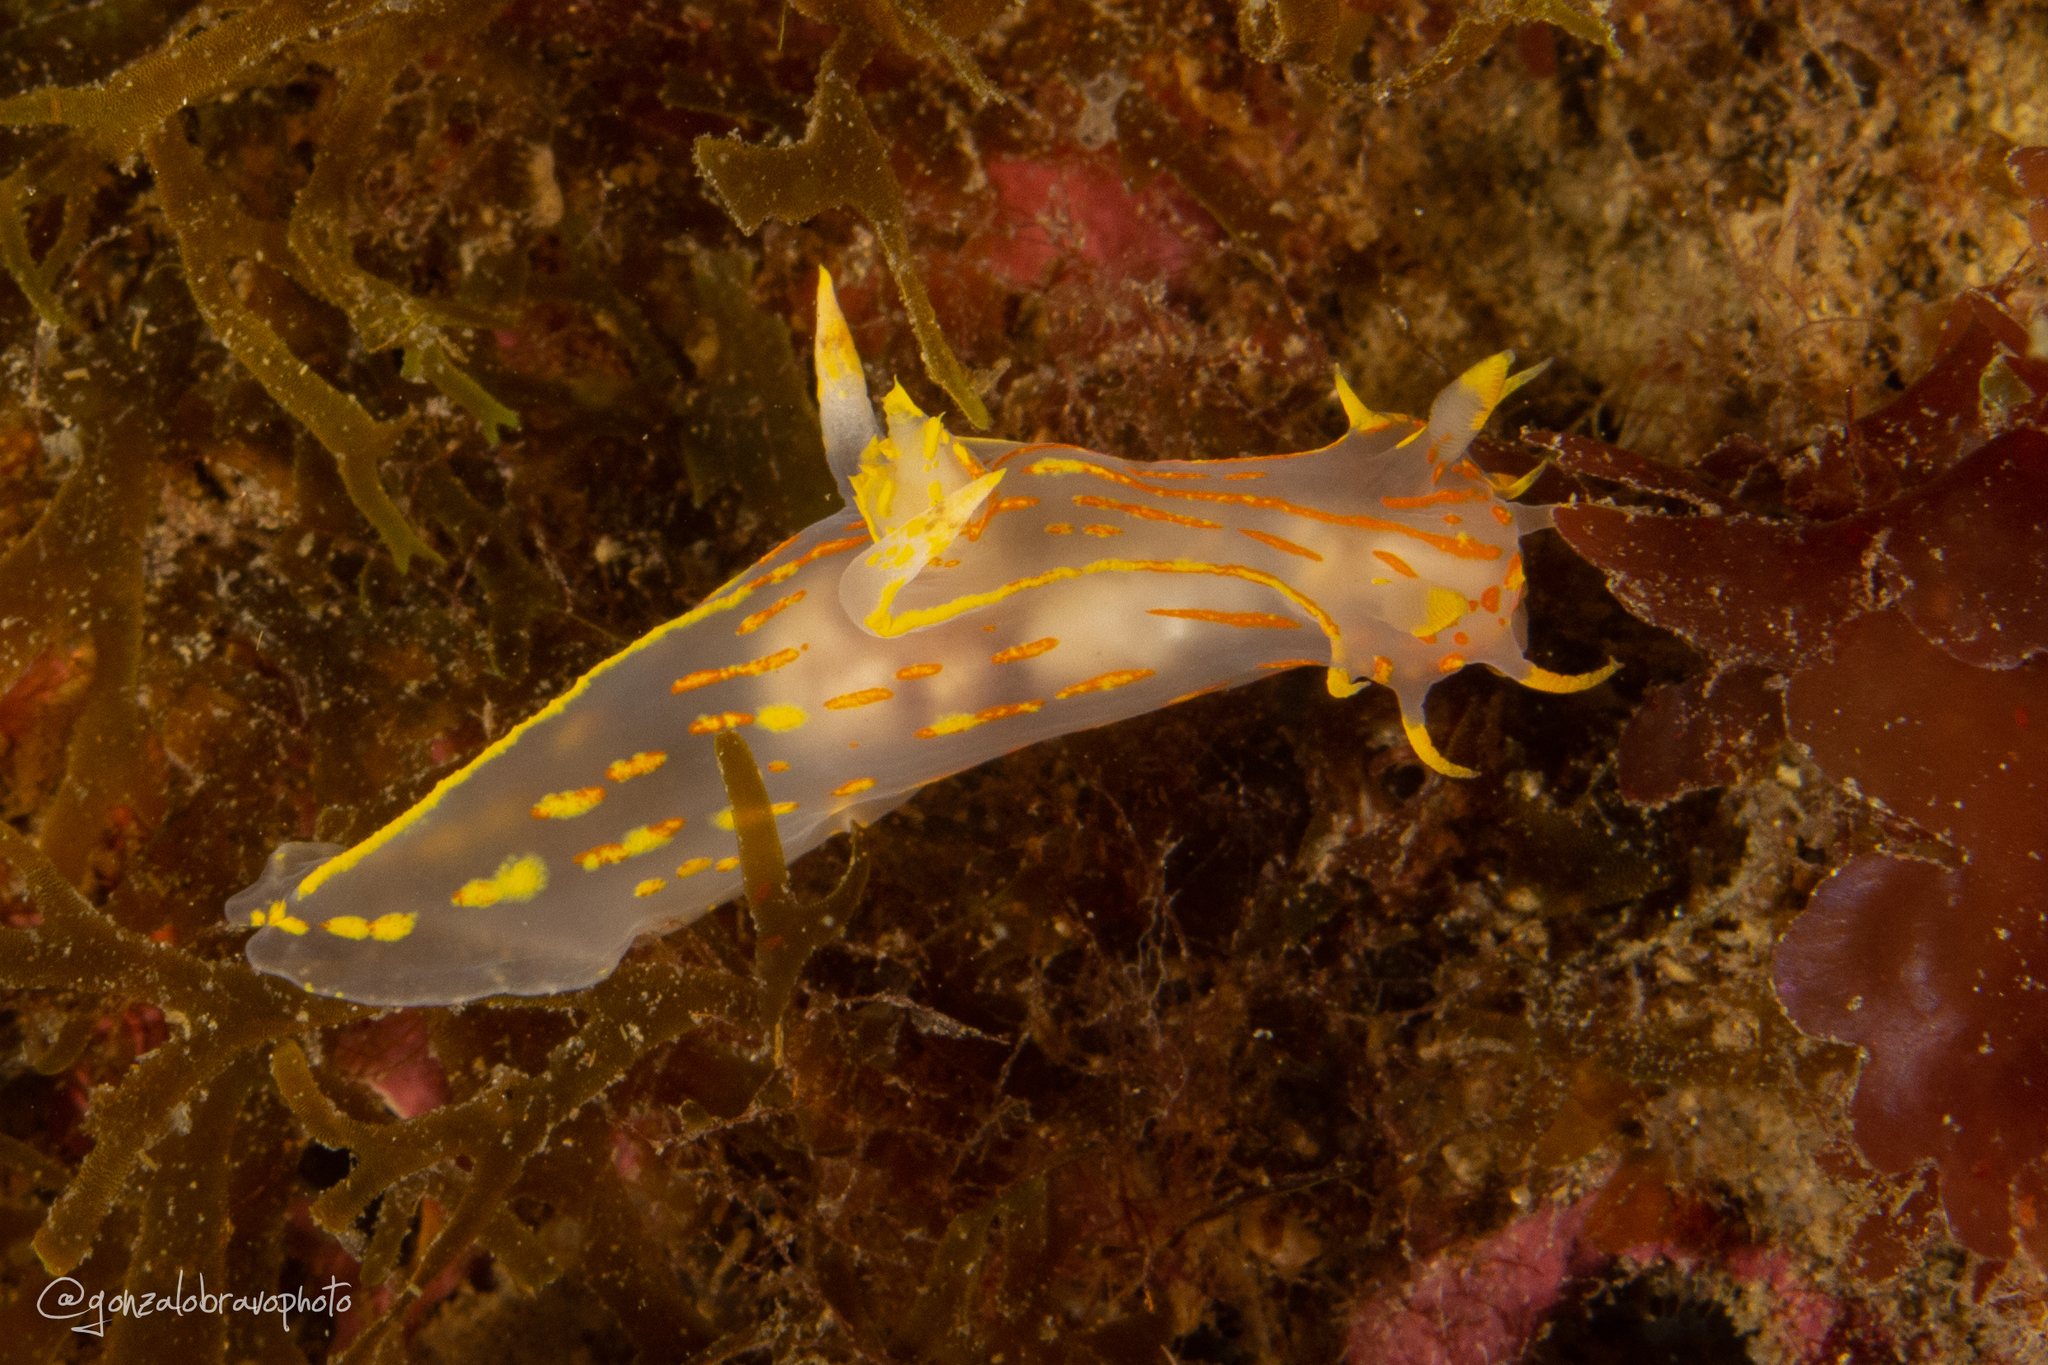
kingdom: Animalia
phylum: Mollusca
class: Gastropoda
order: Nudibranchia
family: Polyceridae
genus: Polycera
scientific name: Polycera marplatensis
